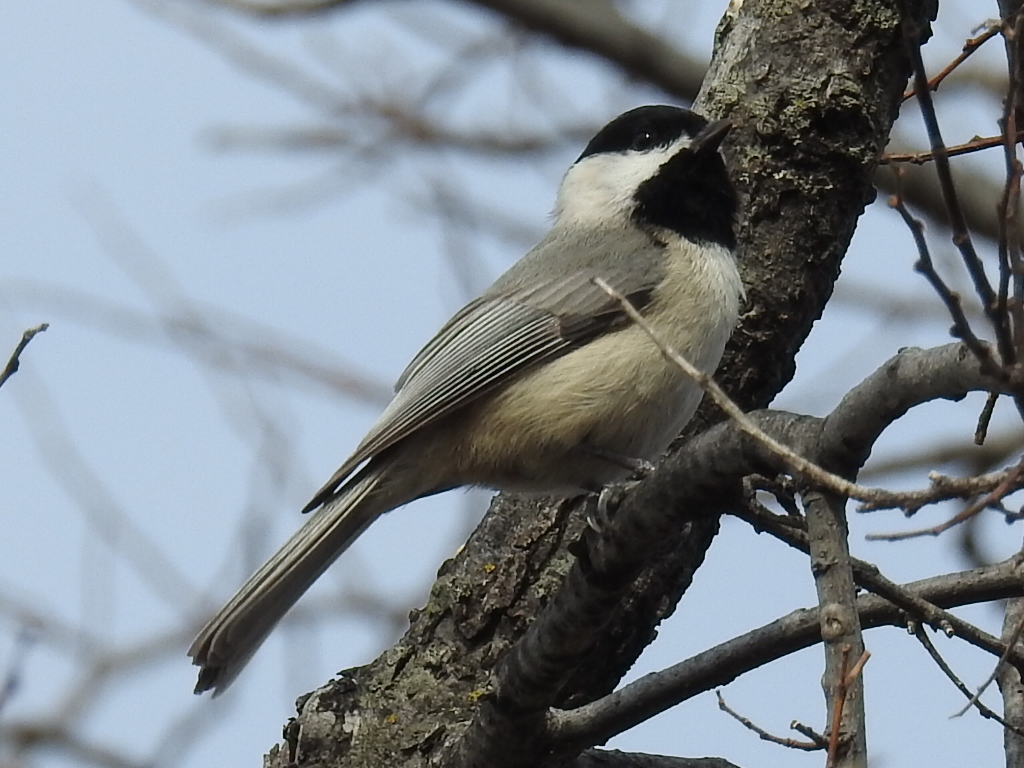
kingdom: Animalia
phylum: Chordata
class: Aves
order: Passeriformes
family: Paridae
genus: Poecile
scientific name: Poecile carolinensis
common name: Carolina chickadee
